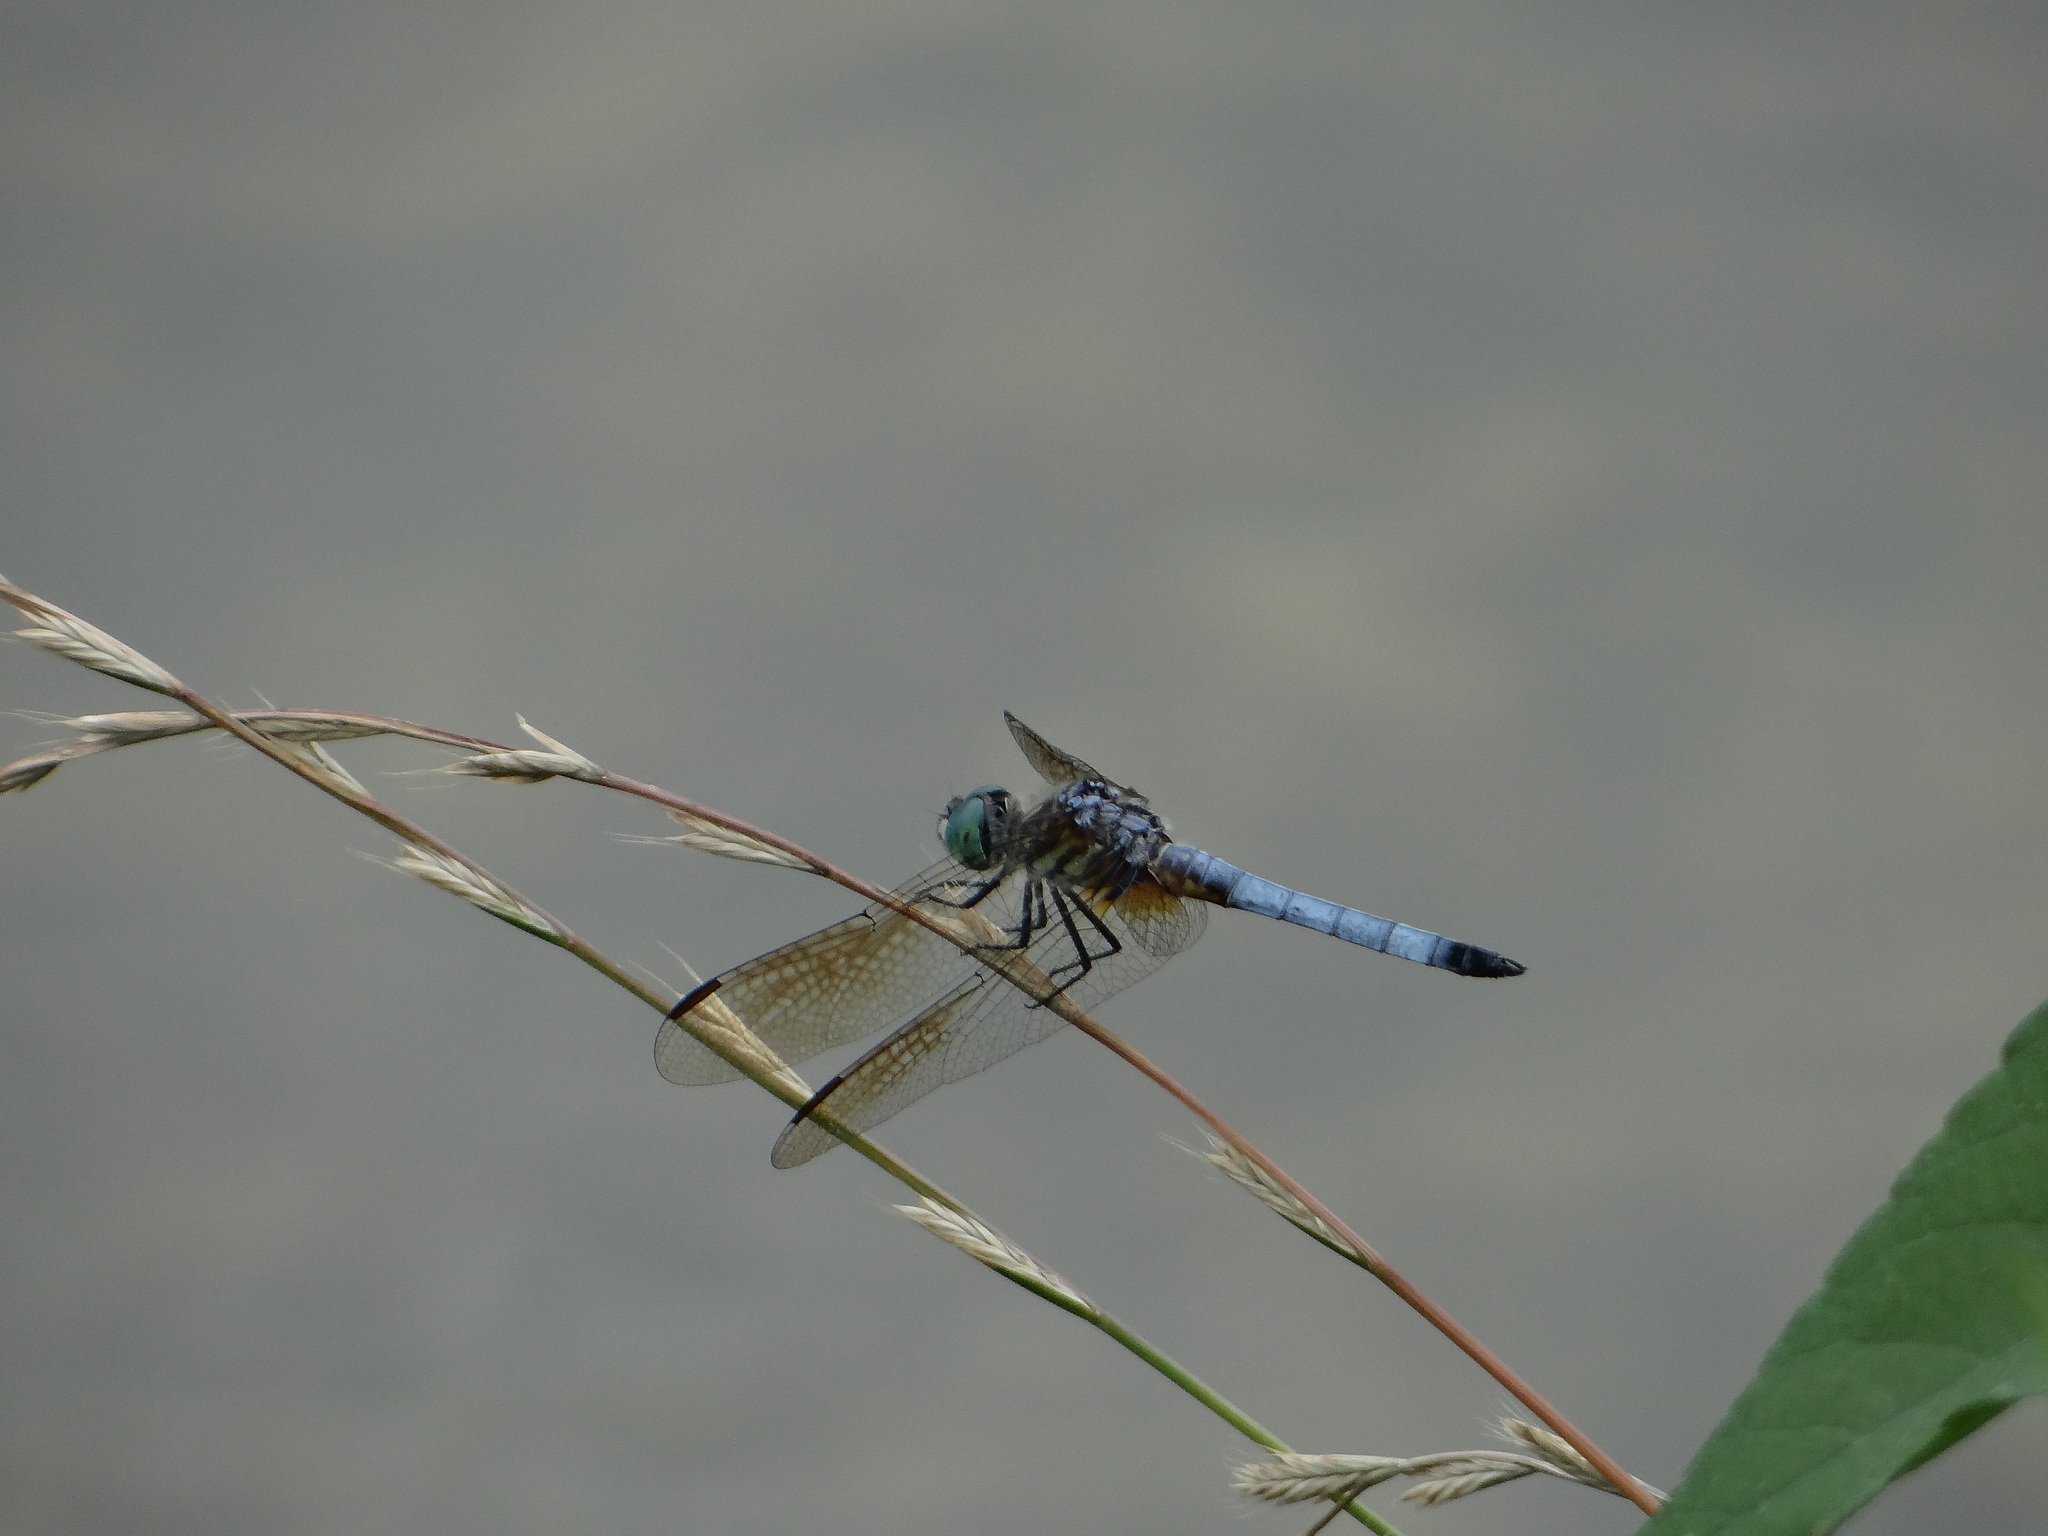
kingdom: Animalia
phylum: Arthropoda
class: Insecta
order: Odonata
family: Libellulidae
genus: Pachydiplax
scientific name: Pachydiplax longipennis
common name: Blue dasher
